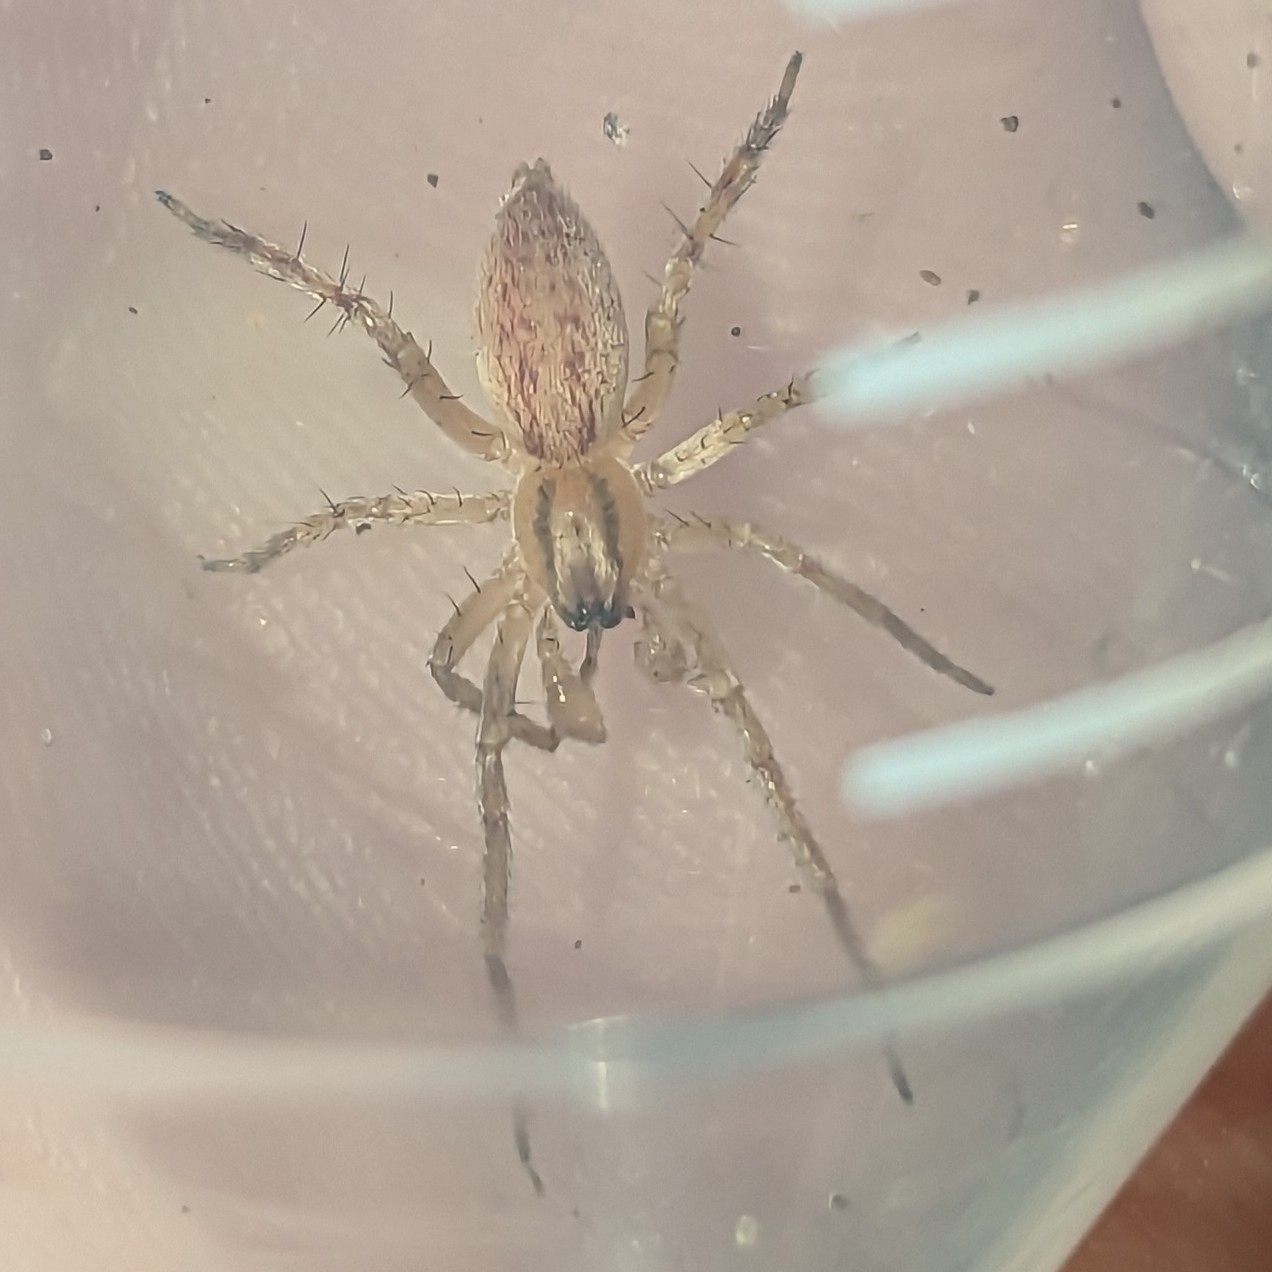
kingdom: Animalia
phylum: Arthropoda
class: Arachnida
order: Araneae
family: Anyphaenidae
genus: Hibana
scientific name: Hibana gracilis
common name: Garden ghost spider
